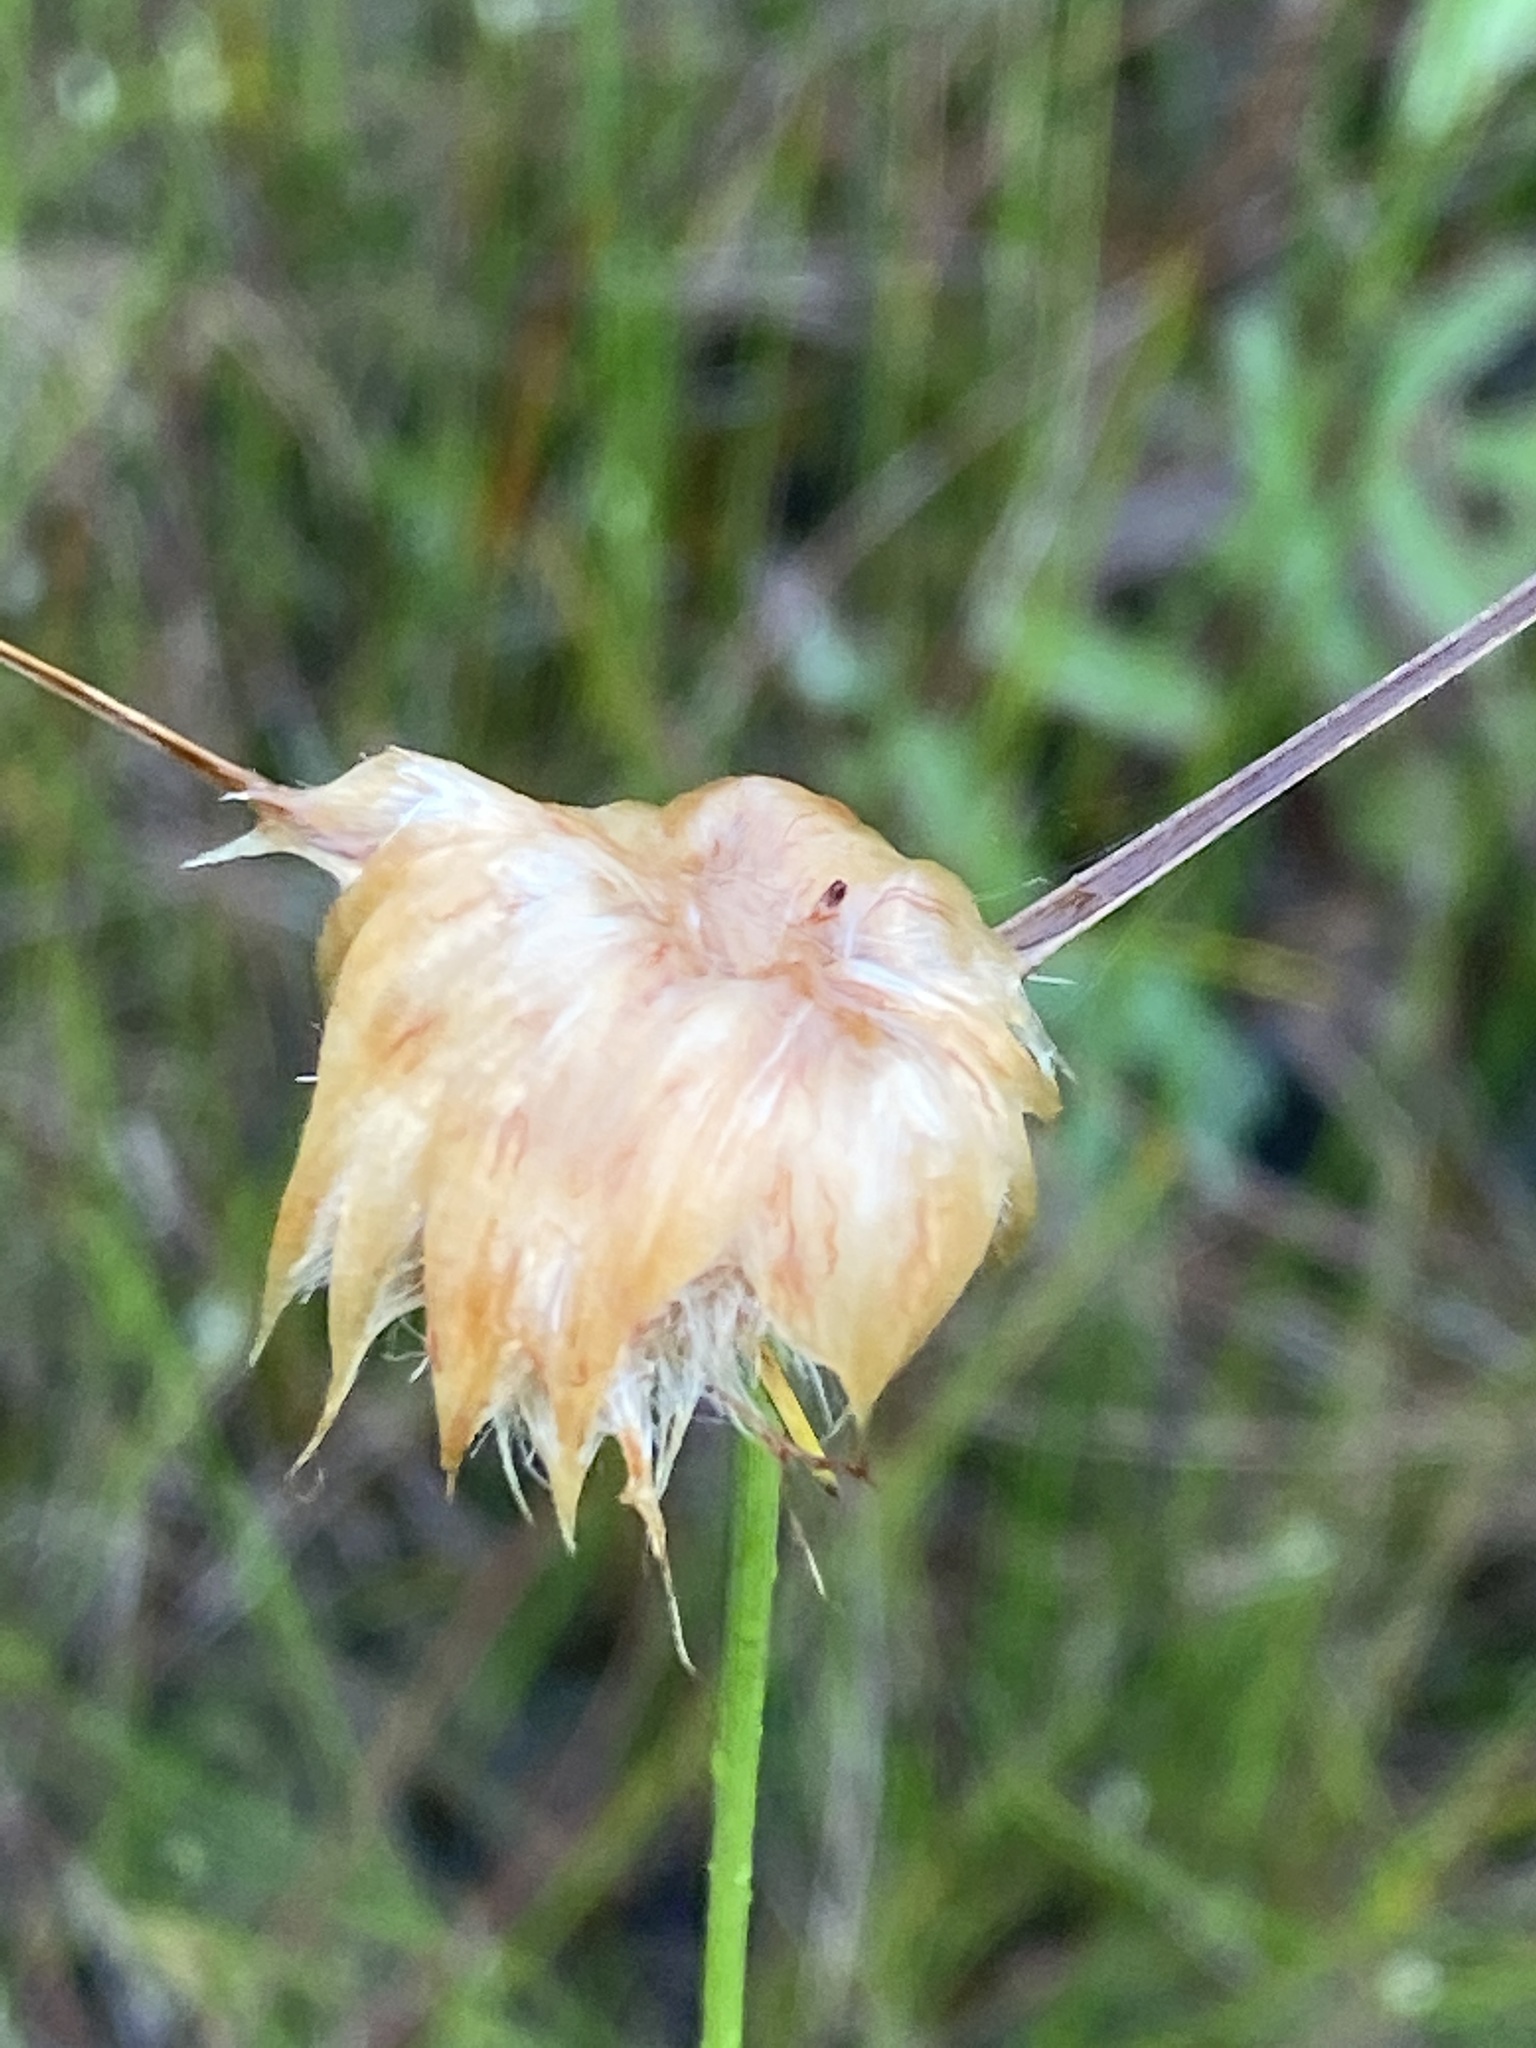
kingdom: Plantae
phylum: Tracheophyta
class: Liliopsida
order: Poales
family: Cyperaceae
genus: Eriophorum
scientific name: Eriophorum virginicum
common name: Tawny cottongrass
